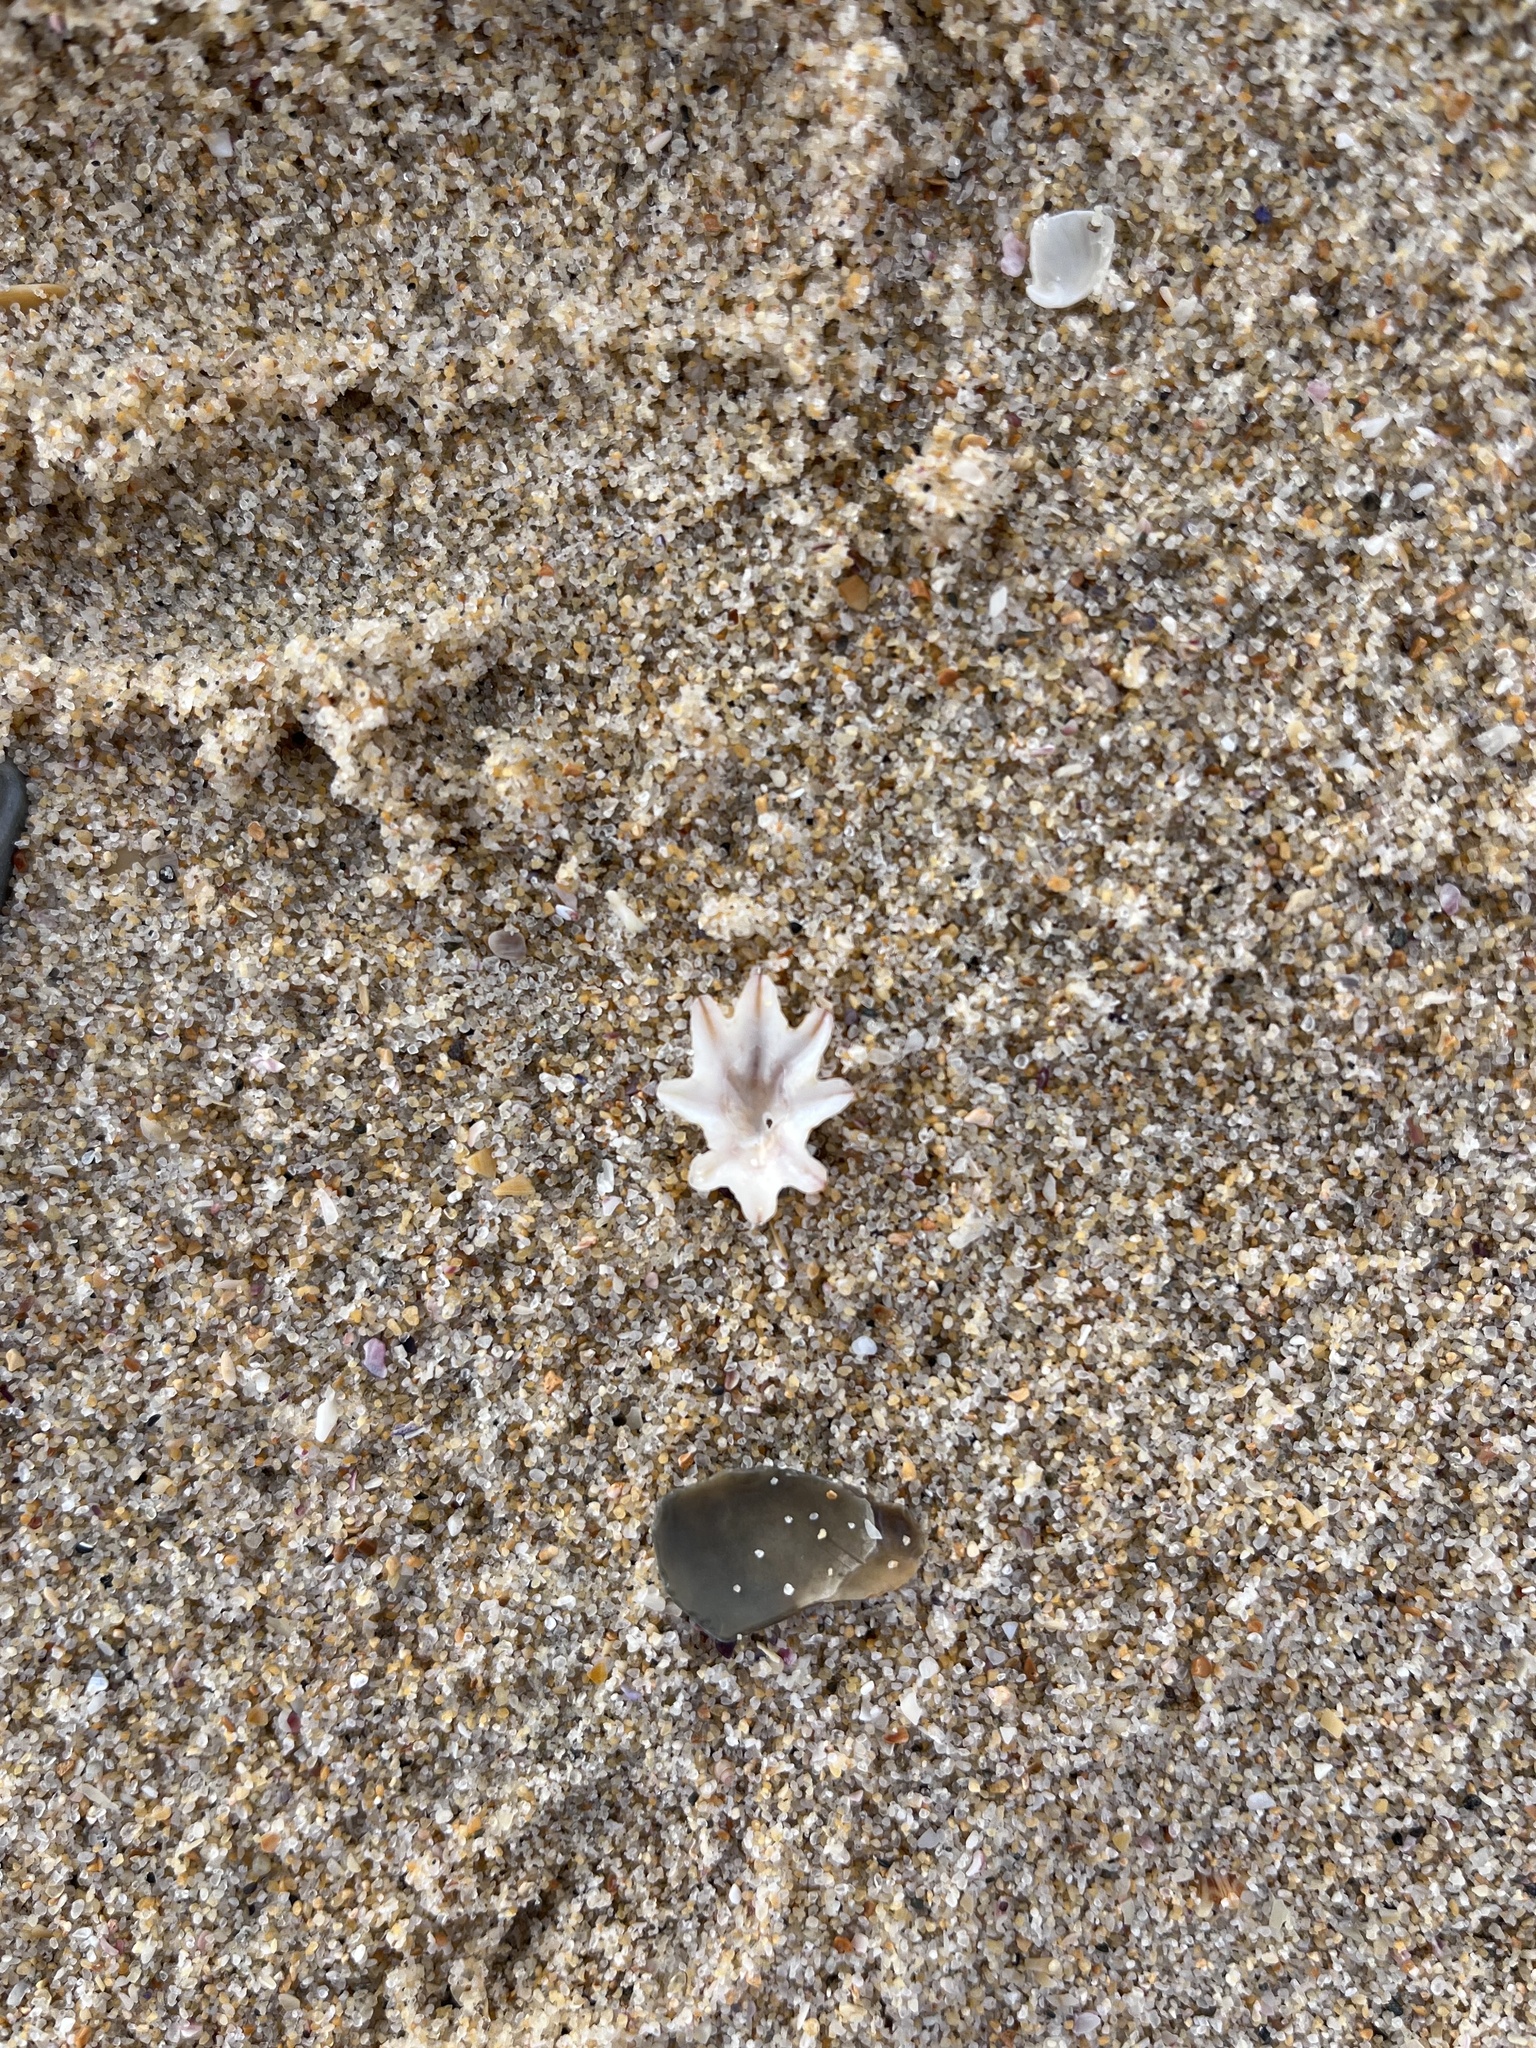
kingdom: Animalia
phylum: Mollusca
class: Gastropoda
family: Patellidae
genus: Scutellastra
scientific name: Scutellastra chapmani
